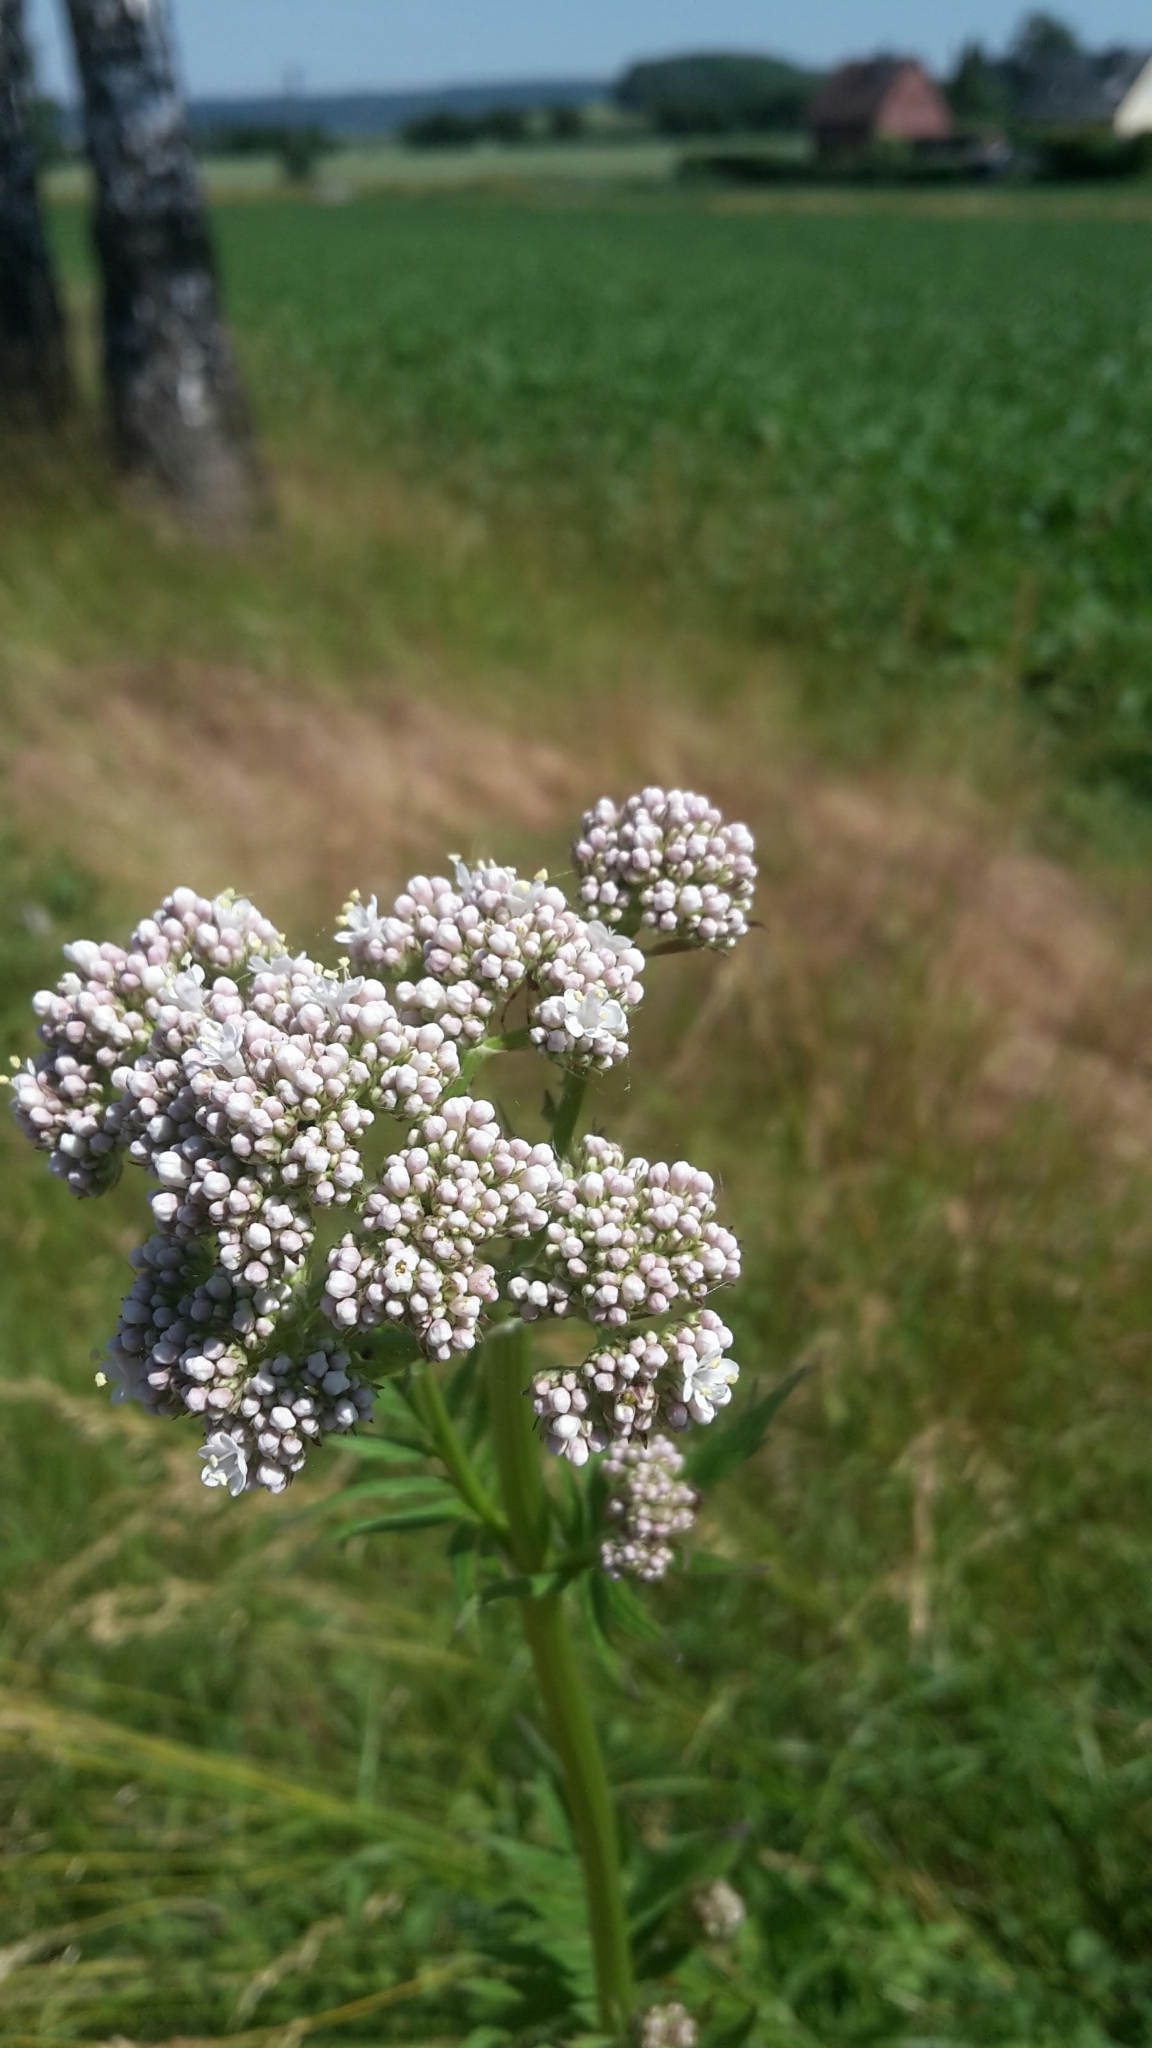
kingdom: Plantae
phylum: Tracheophyta
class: Magnoliopsida
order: Dipsacales
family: Caprifoliaceae
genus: Valeriana
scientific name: Valeriana officinalis
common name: Common valerian
